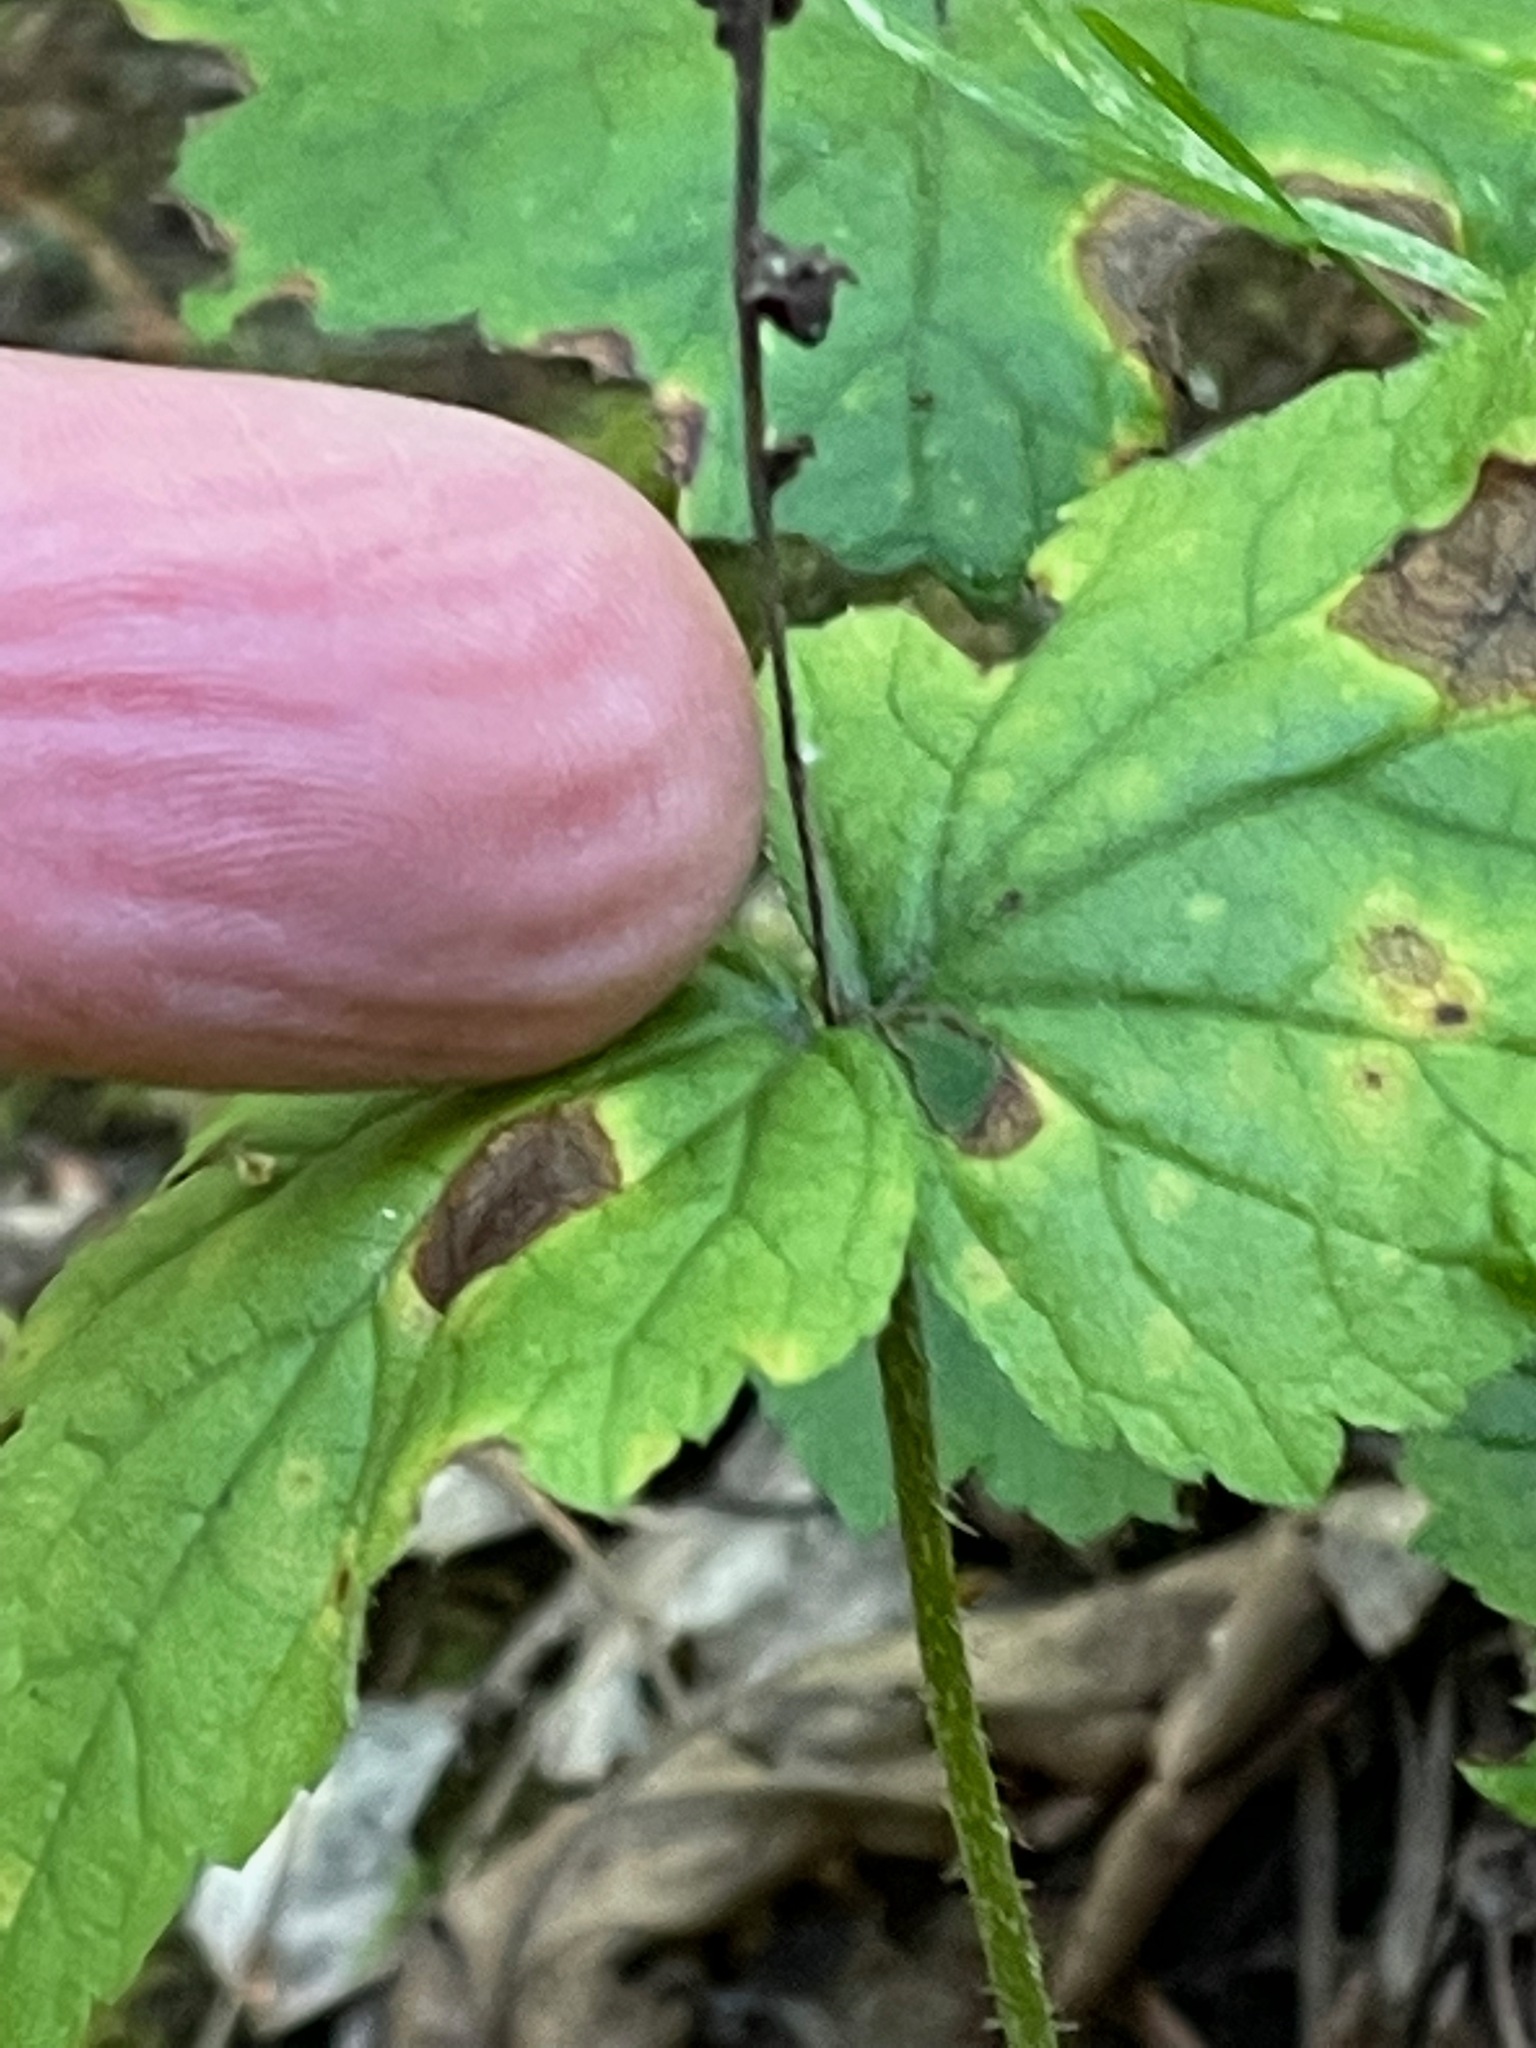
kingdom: Plantae
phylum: Tracheophyta
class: Magnoliopsida
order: Saxifragales
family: Saxifragaceae
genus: Mitella
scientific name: Mitella diphylla
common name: Coolwort
